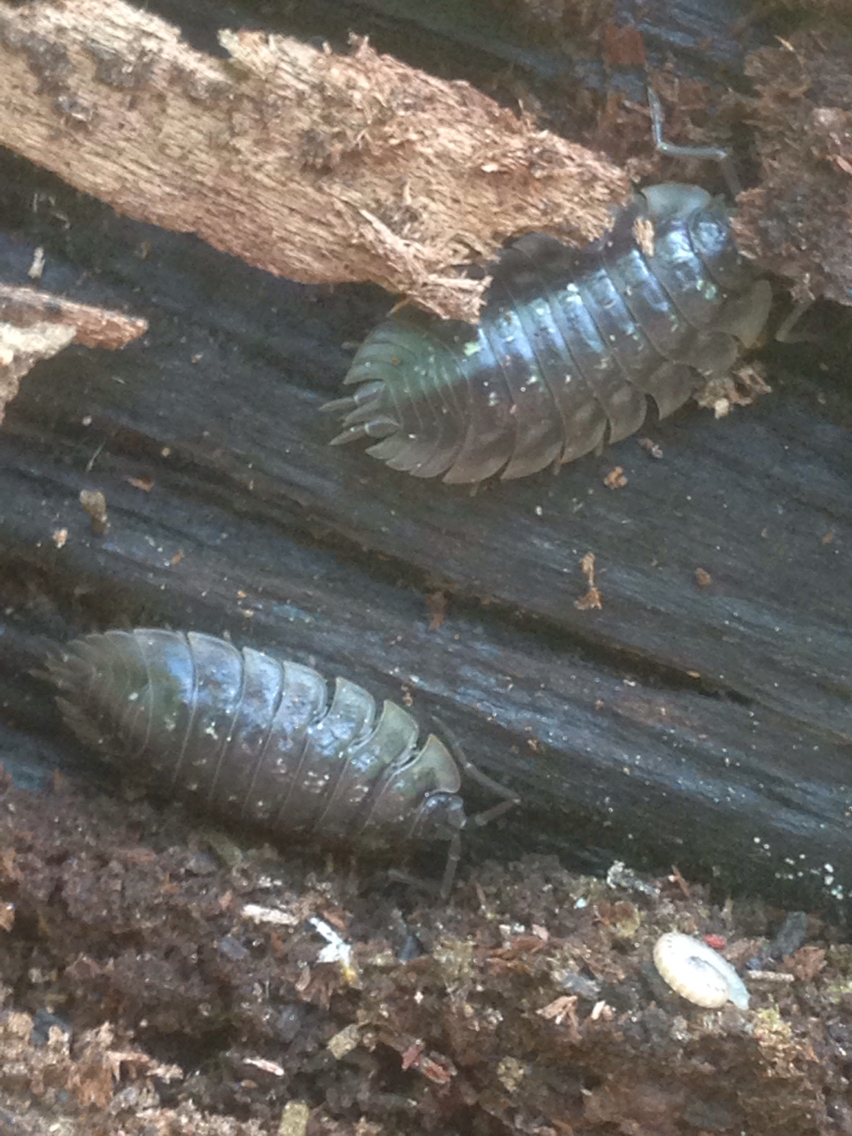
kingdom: Animalia
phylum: Arthropoda
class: Malacostraca
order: Isopoda
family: Oniscidae
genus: Oniscus
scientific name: Oniscus asellus
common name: Common shiny woodlouse
